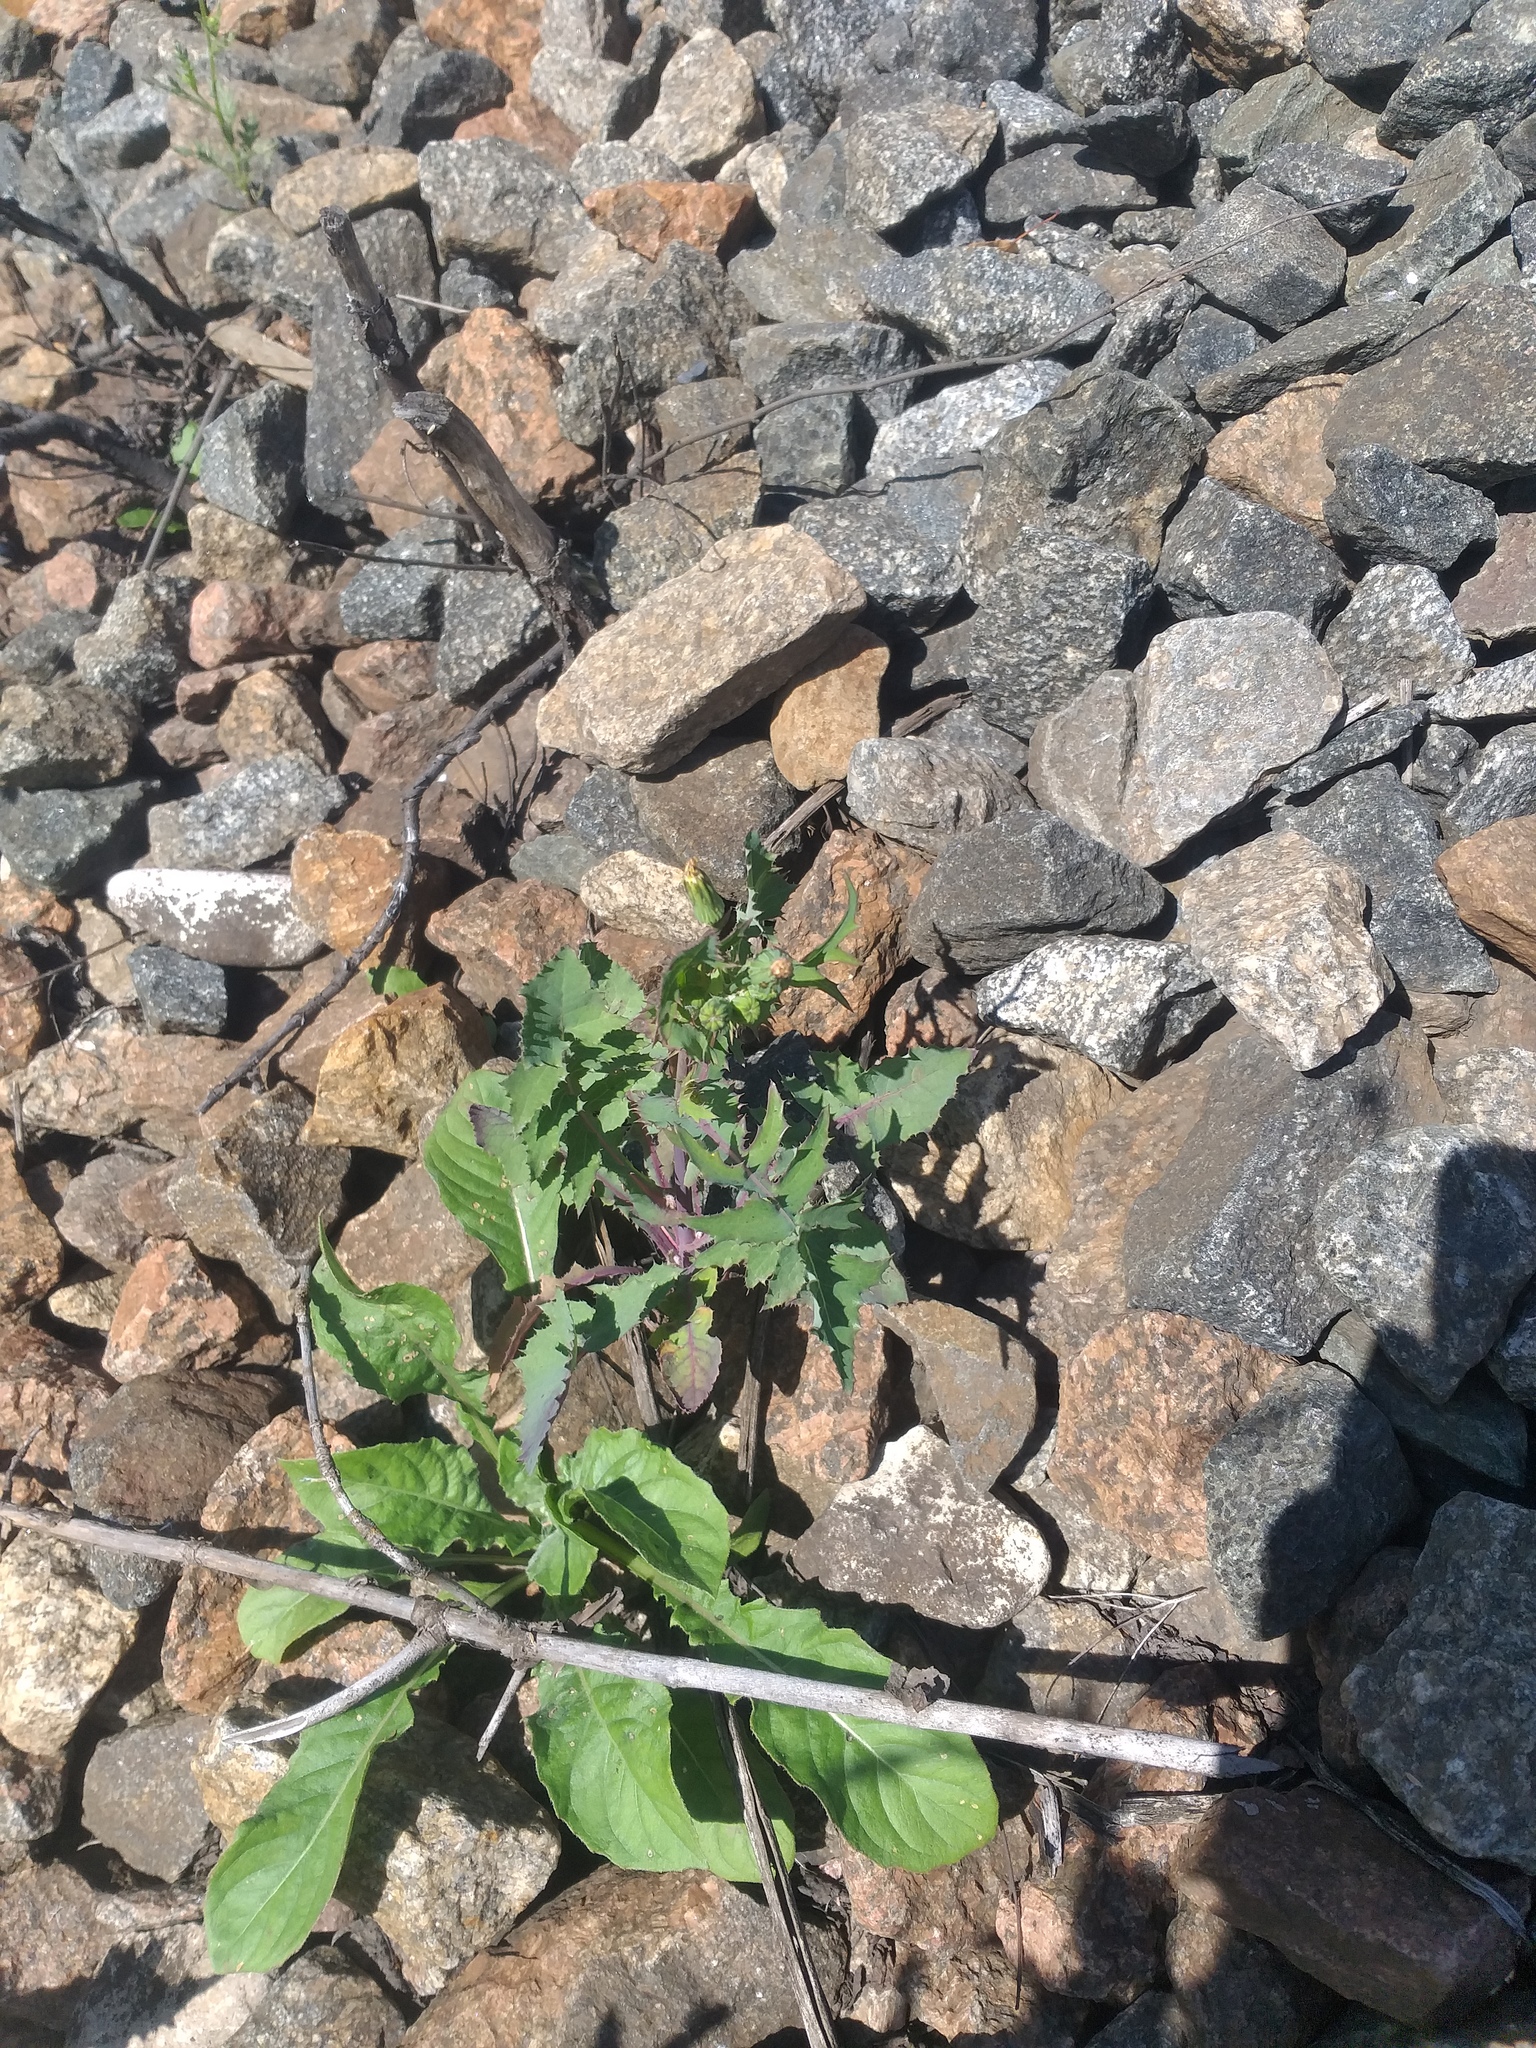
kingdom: Plantae
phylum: Tracheophyta
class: Magnoliopsida
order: Asterales
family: Asteraceae
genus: Sonchus
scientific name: Sonchus oleraceus
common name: Common sowthistle
